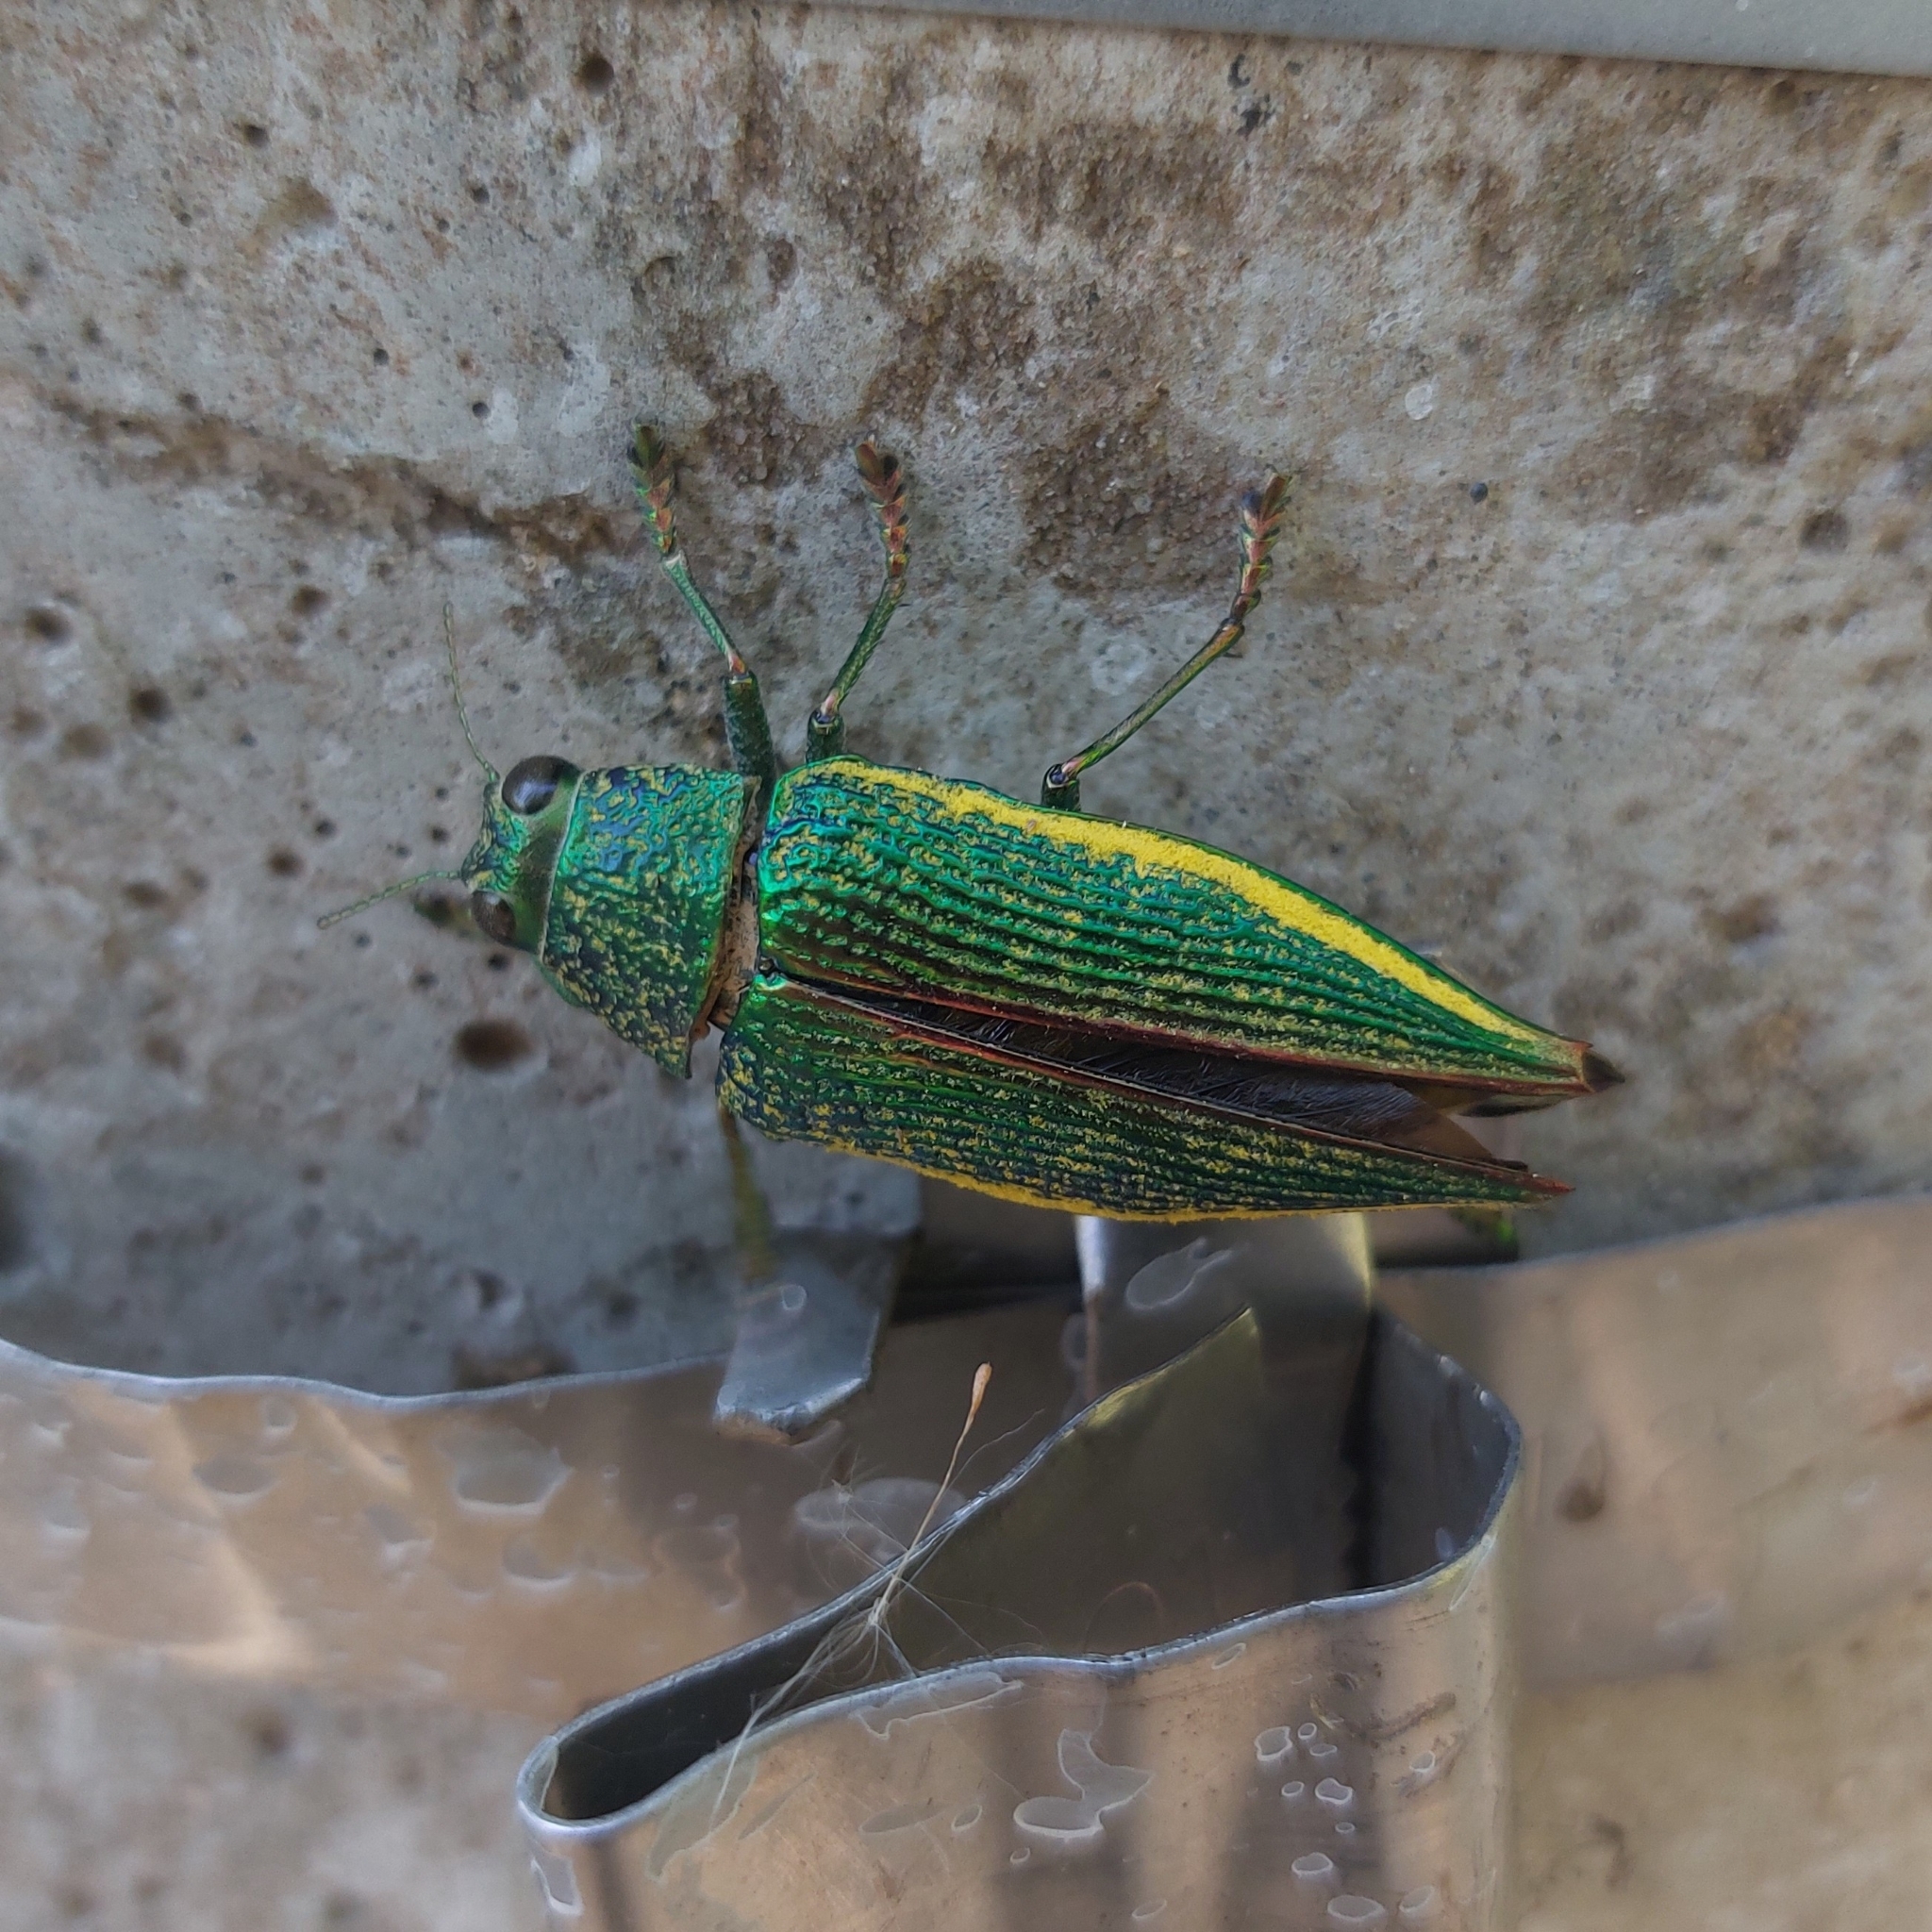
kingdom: Animalia
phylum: Arthropoda
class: Insecta
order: Coleoptera
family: Buprestidae
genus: Psiloptera
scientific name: Psiloptera attenuata
